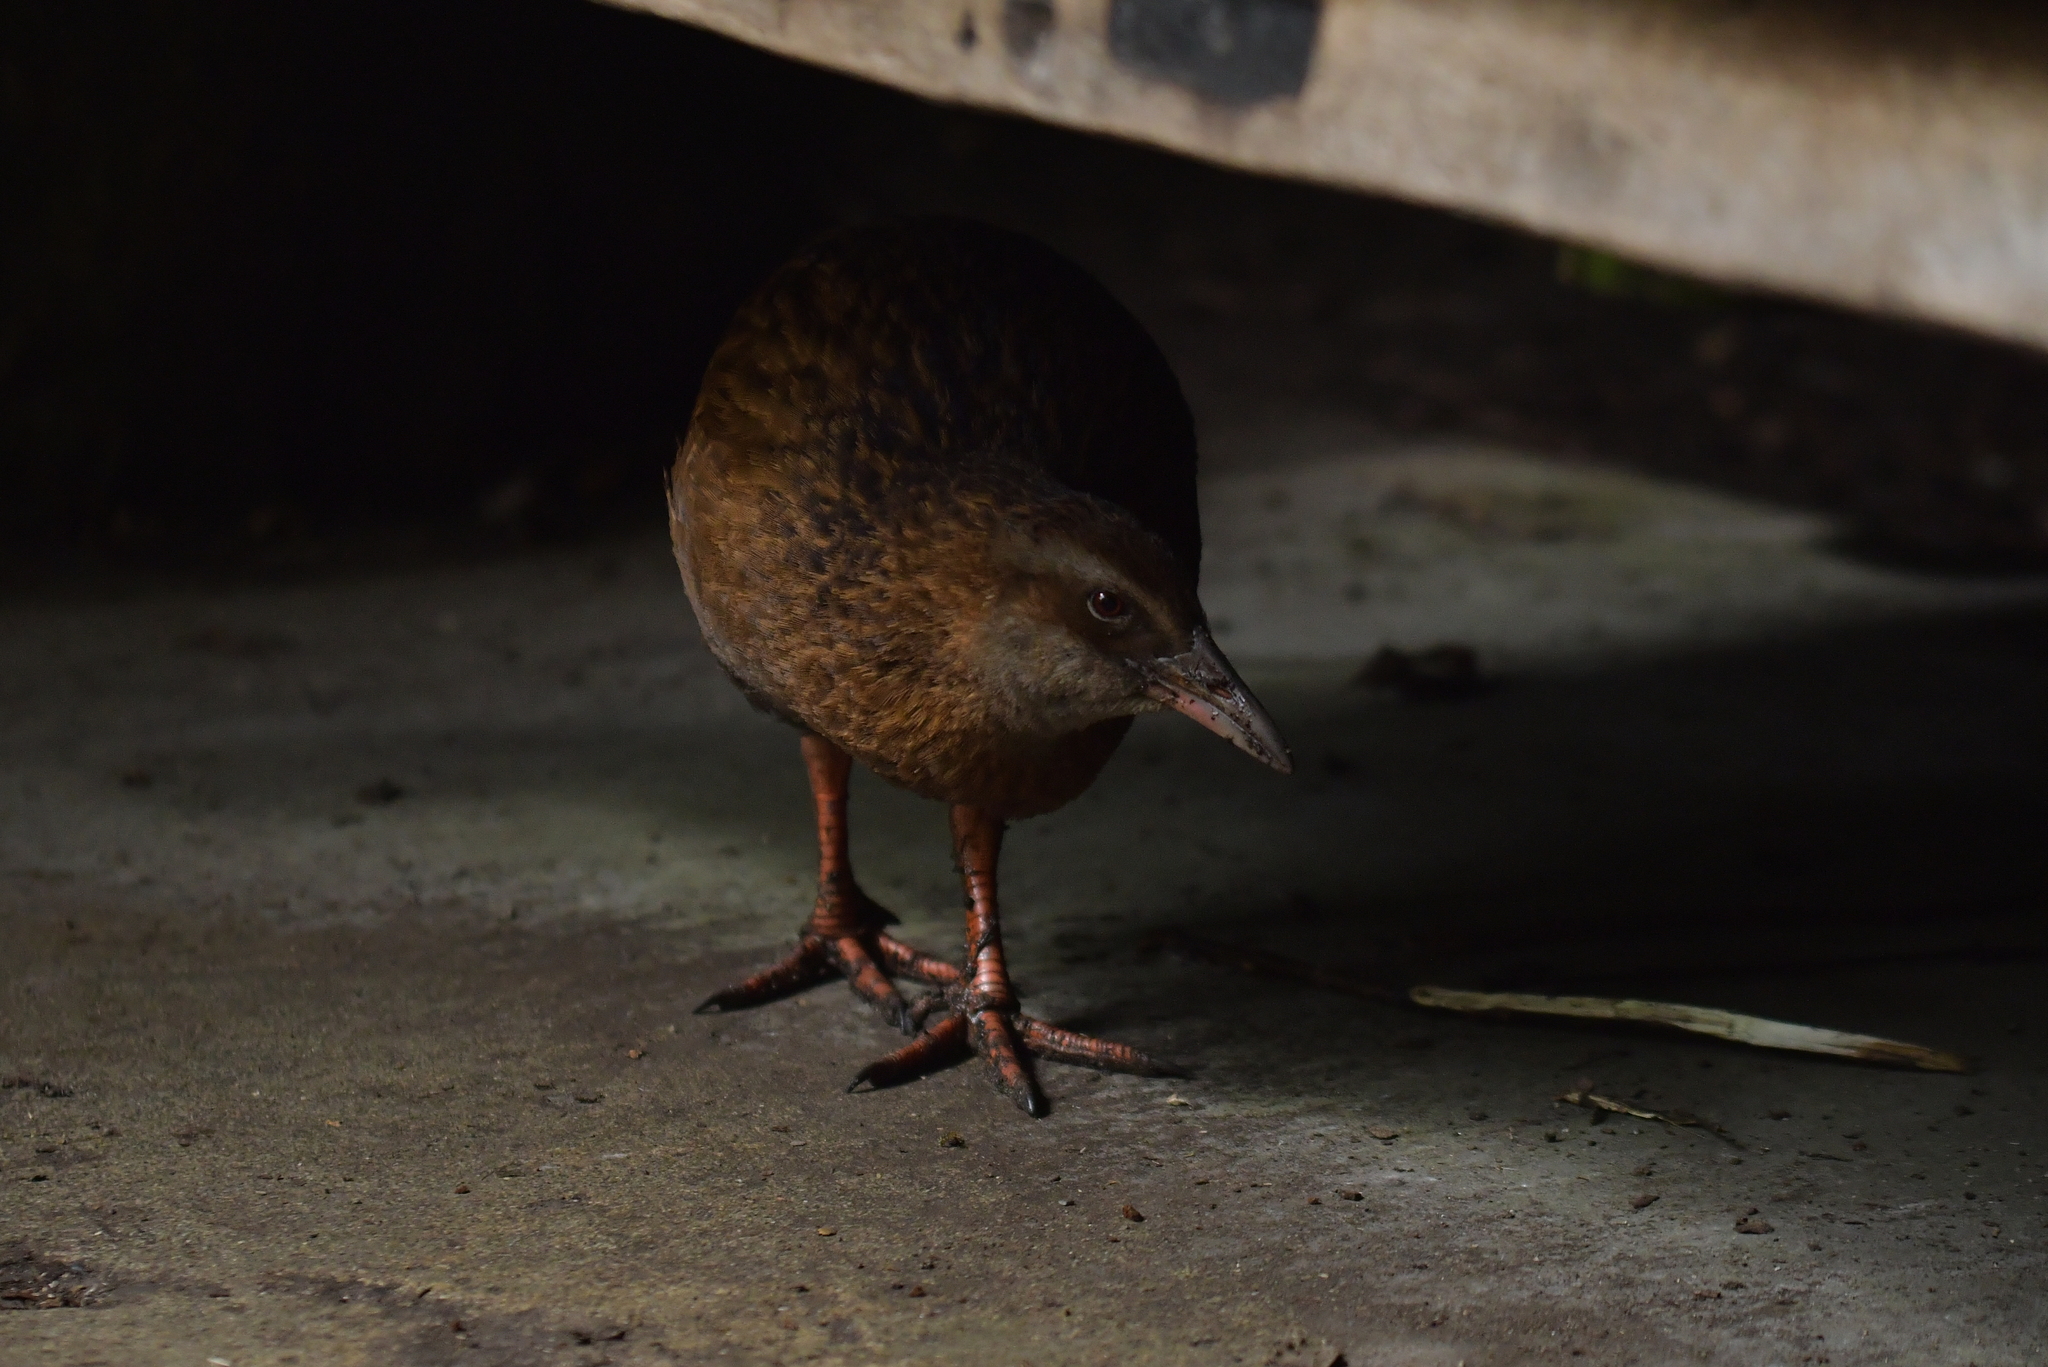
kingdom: Animalia
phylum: Chordata
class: Aves
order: Gruiformes
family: Rallidae
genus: Gallirallus
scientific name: Gallirallus australis
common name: Weka
